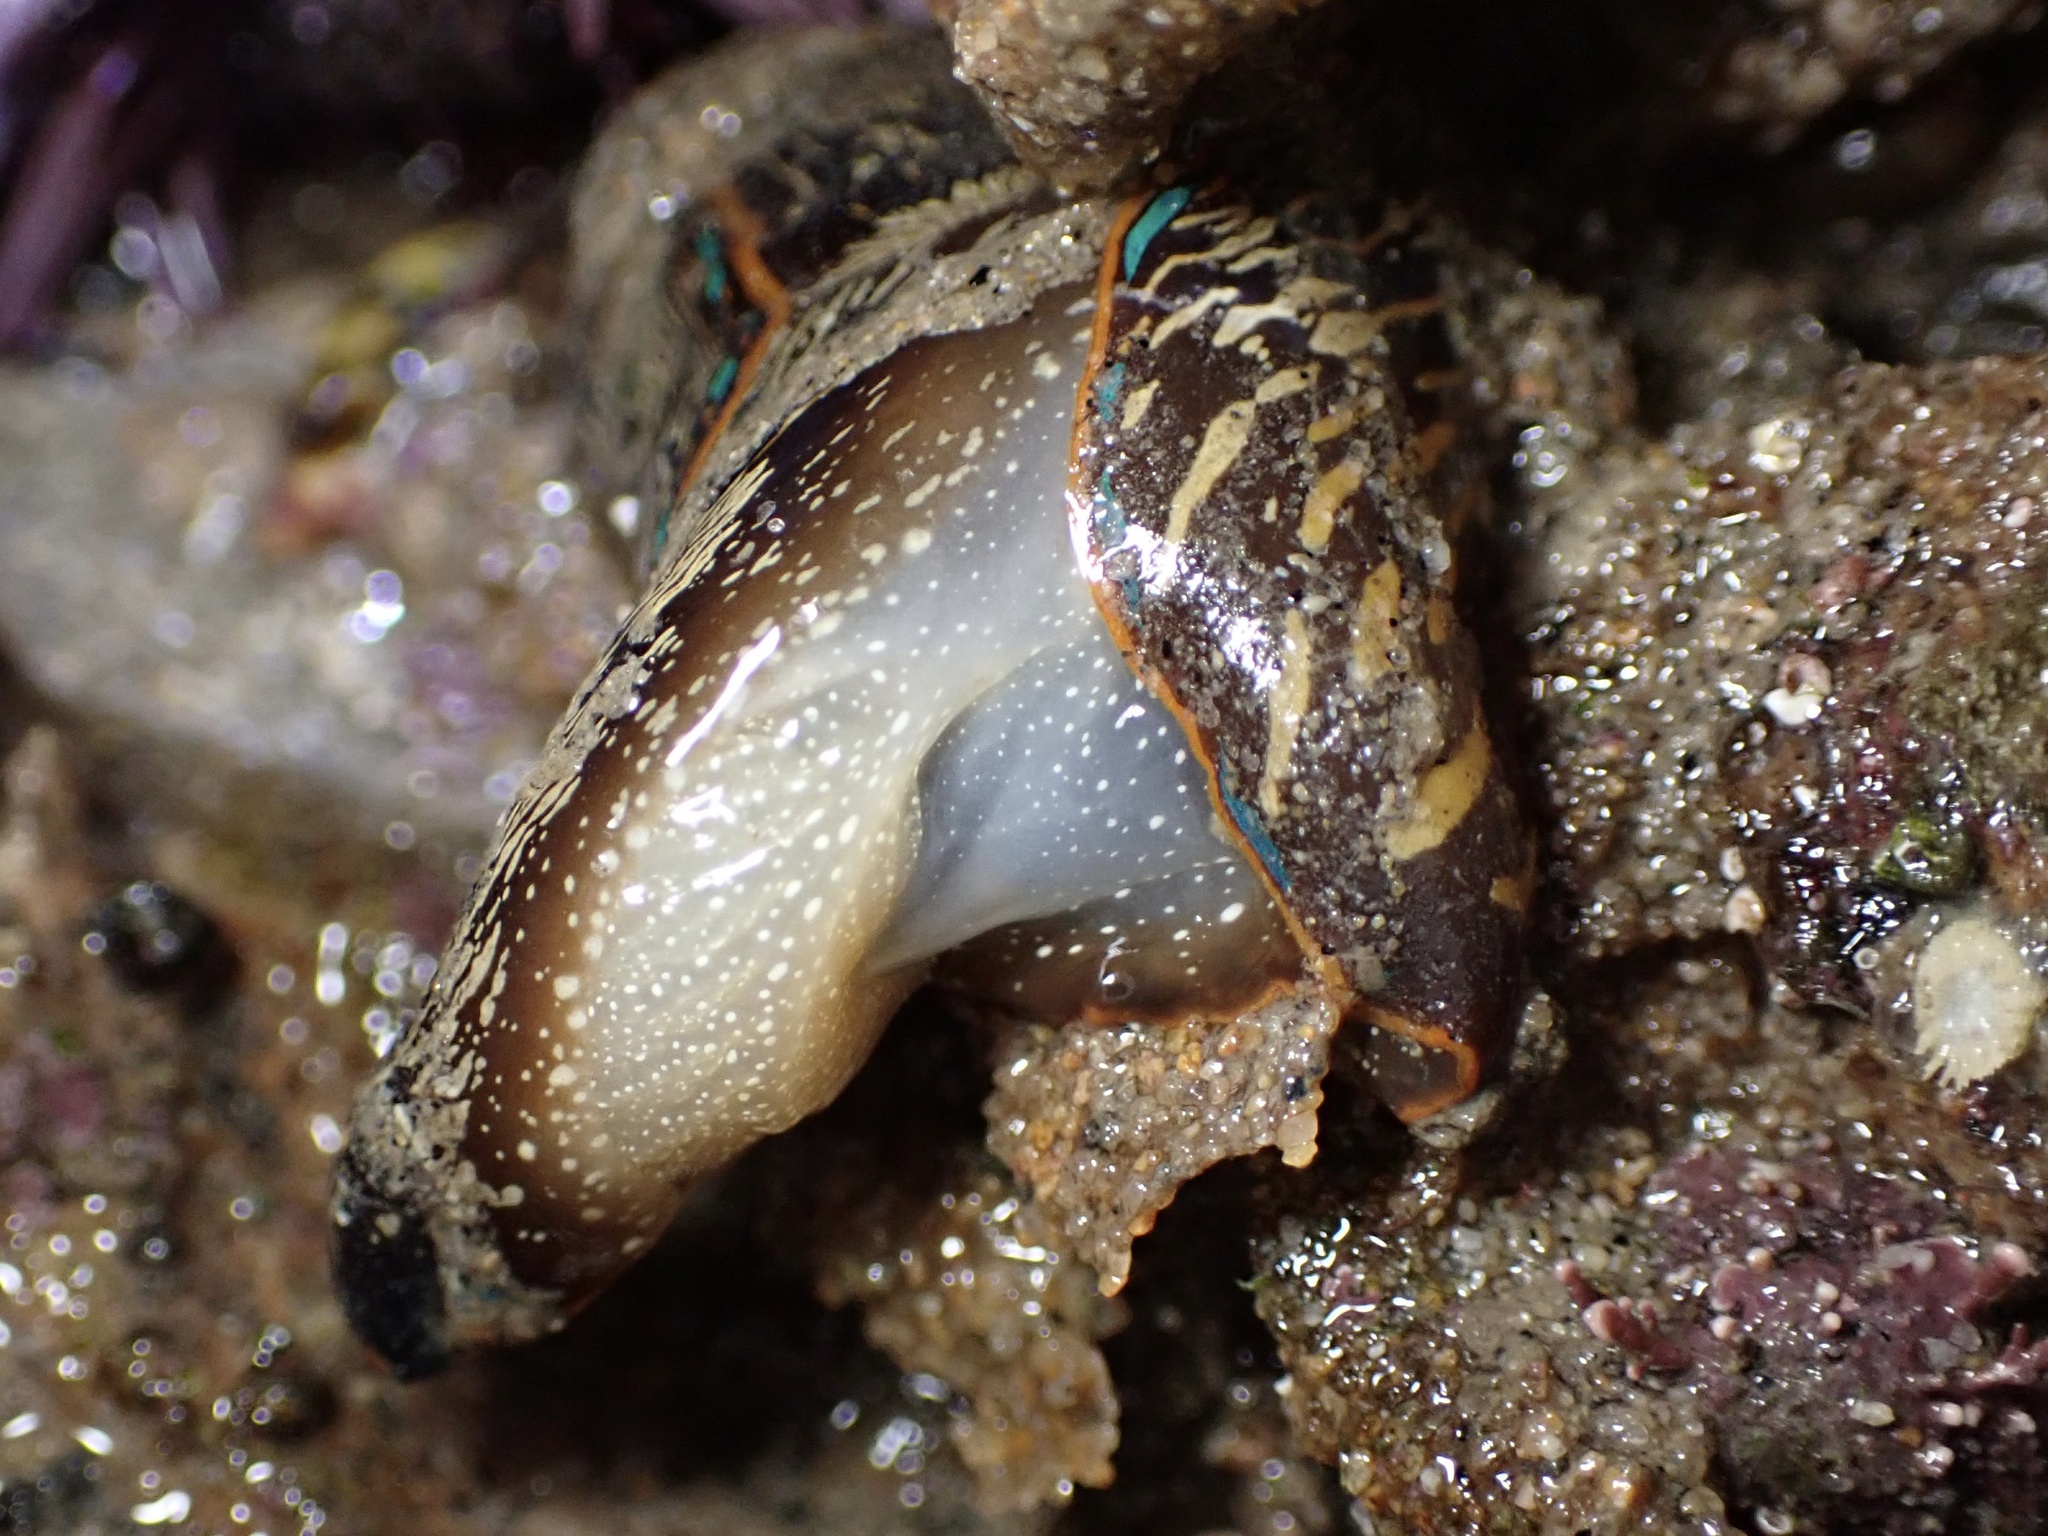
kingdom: Animalia
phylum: Mollusca
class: Gastropoda
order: Cephalaspidea
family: Aglajidae
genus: Navanax
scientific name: Navanax inermis
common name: California aglaja
